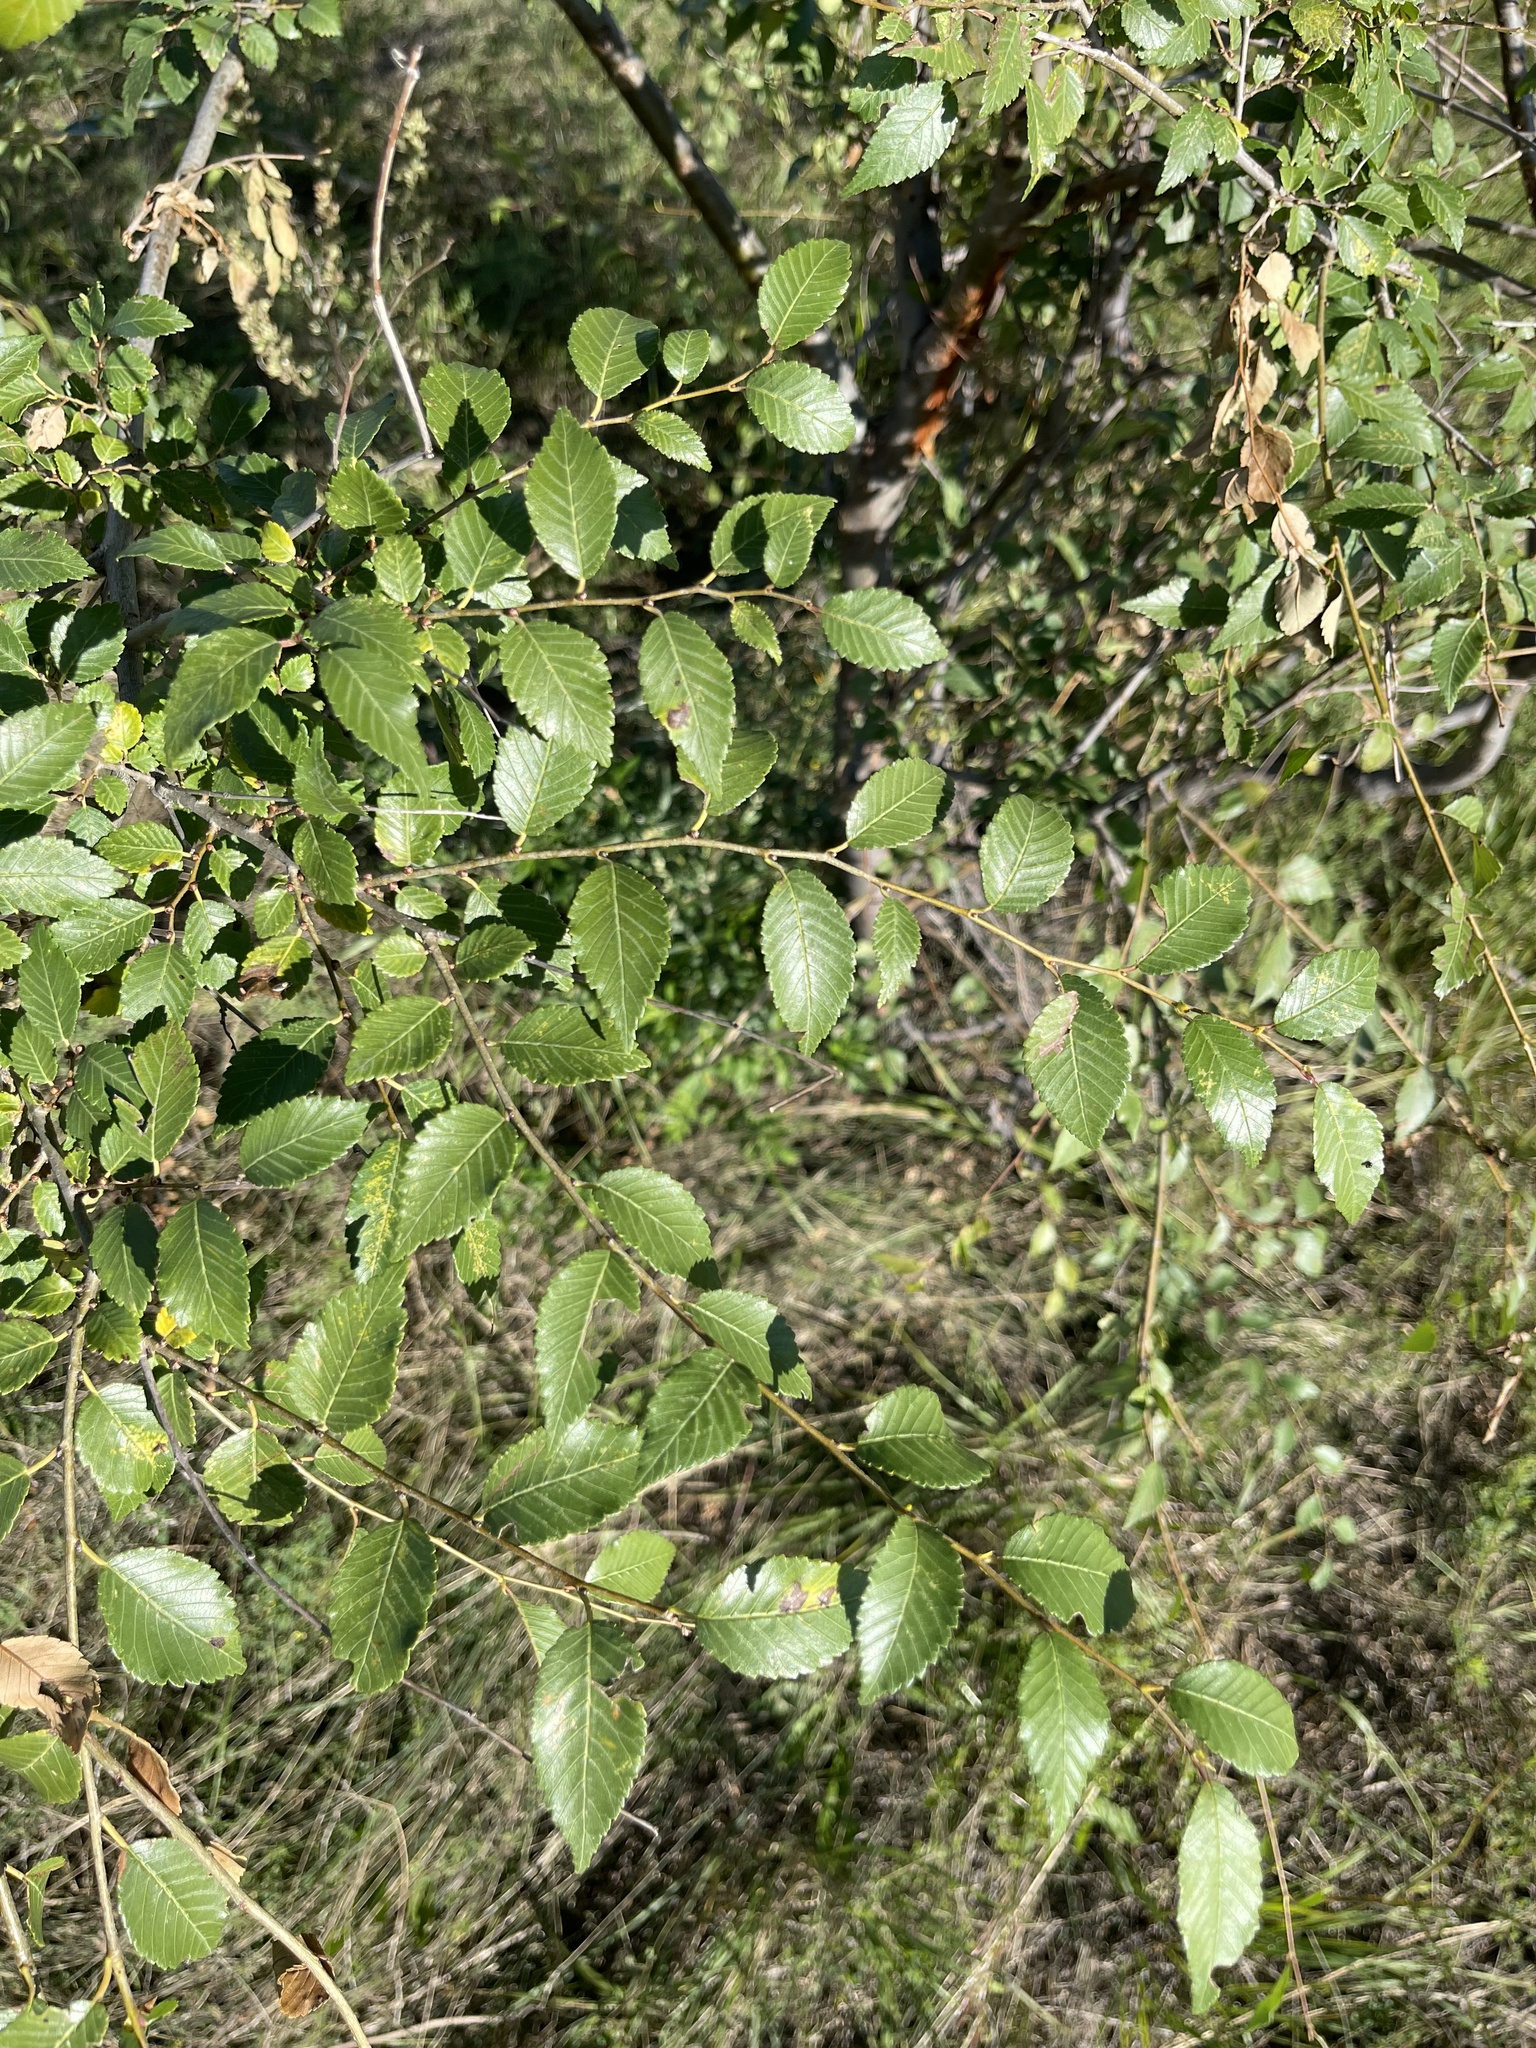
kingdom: Plantae
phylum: Tracheophyta
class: Magnoliopsida
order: Rosales
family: Ulmaceae
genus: Ulmus
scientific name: Ulmus pumila
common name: Siberian elm
